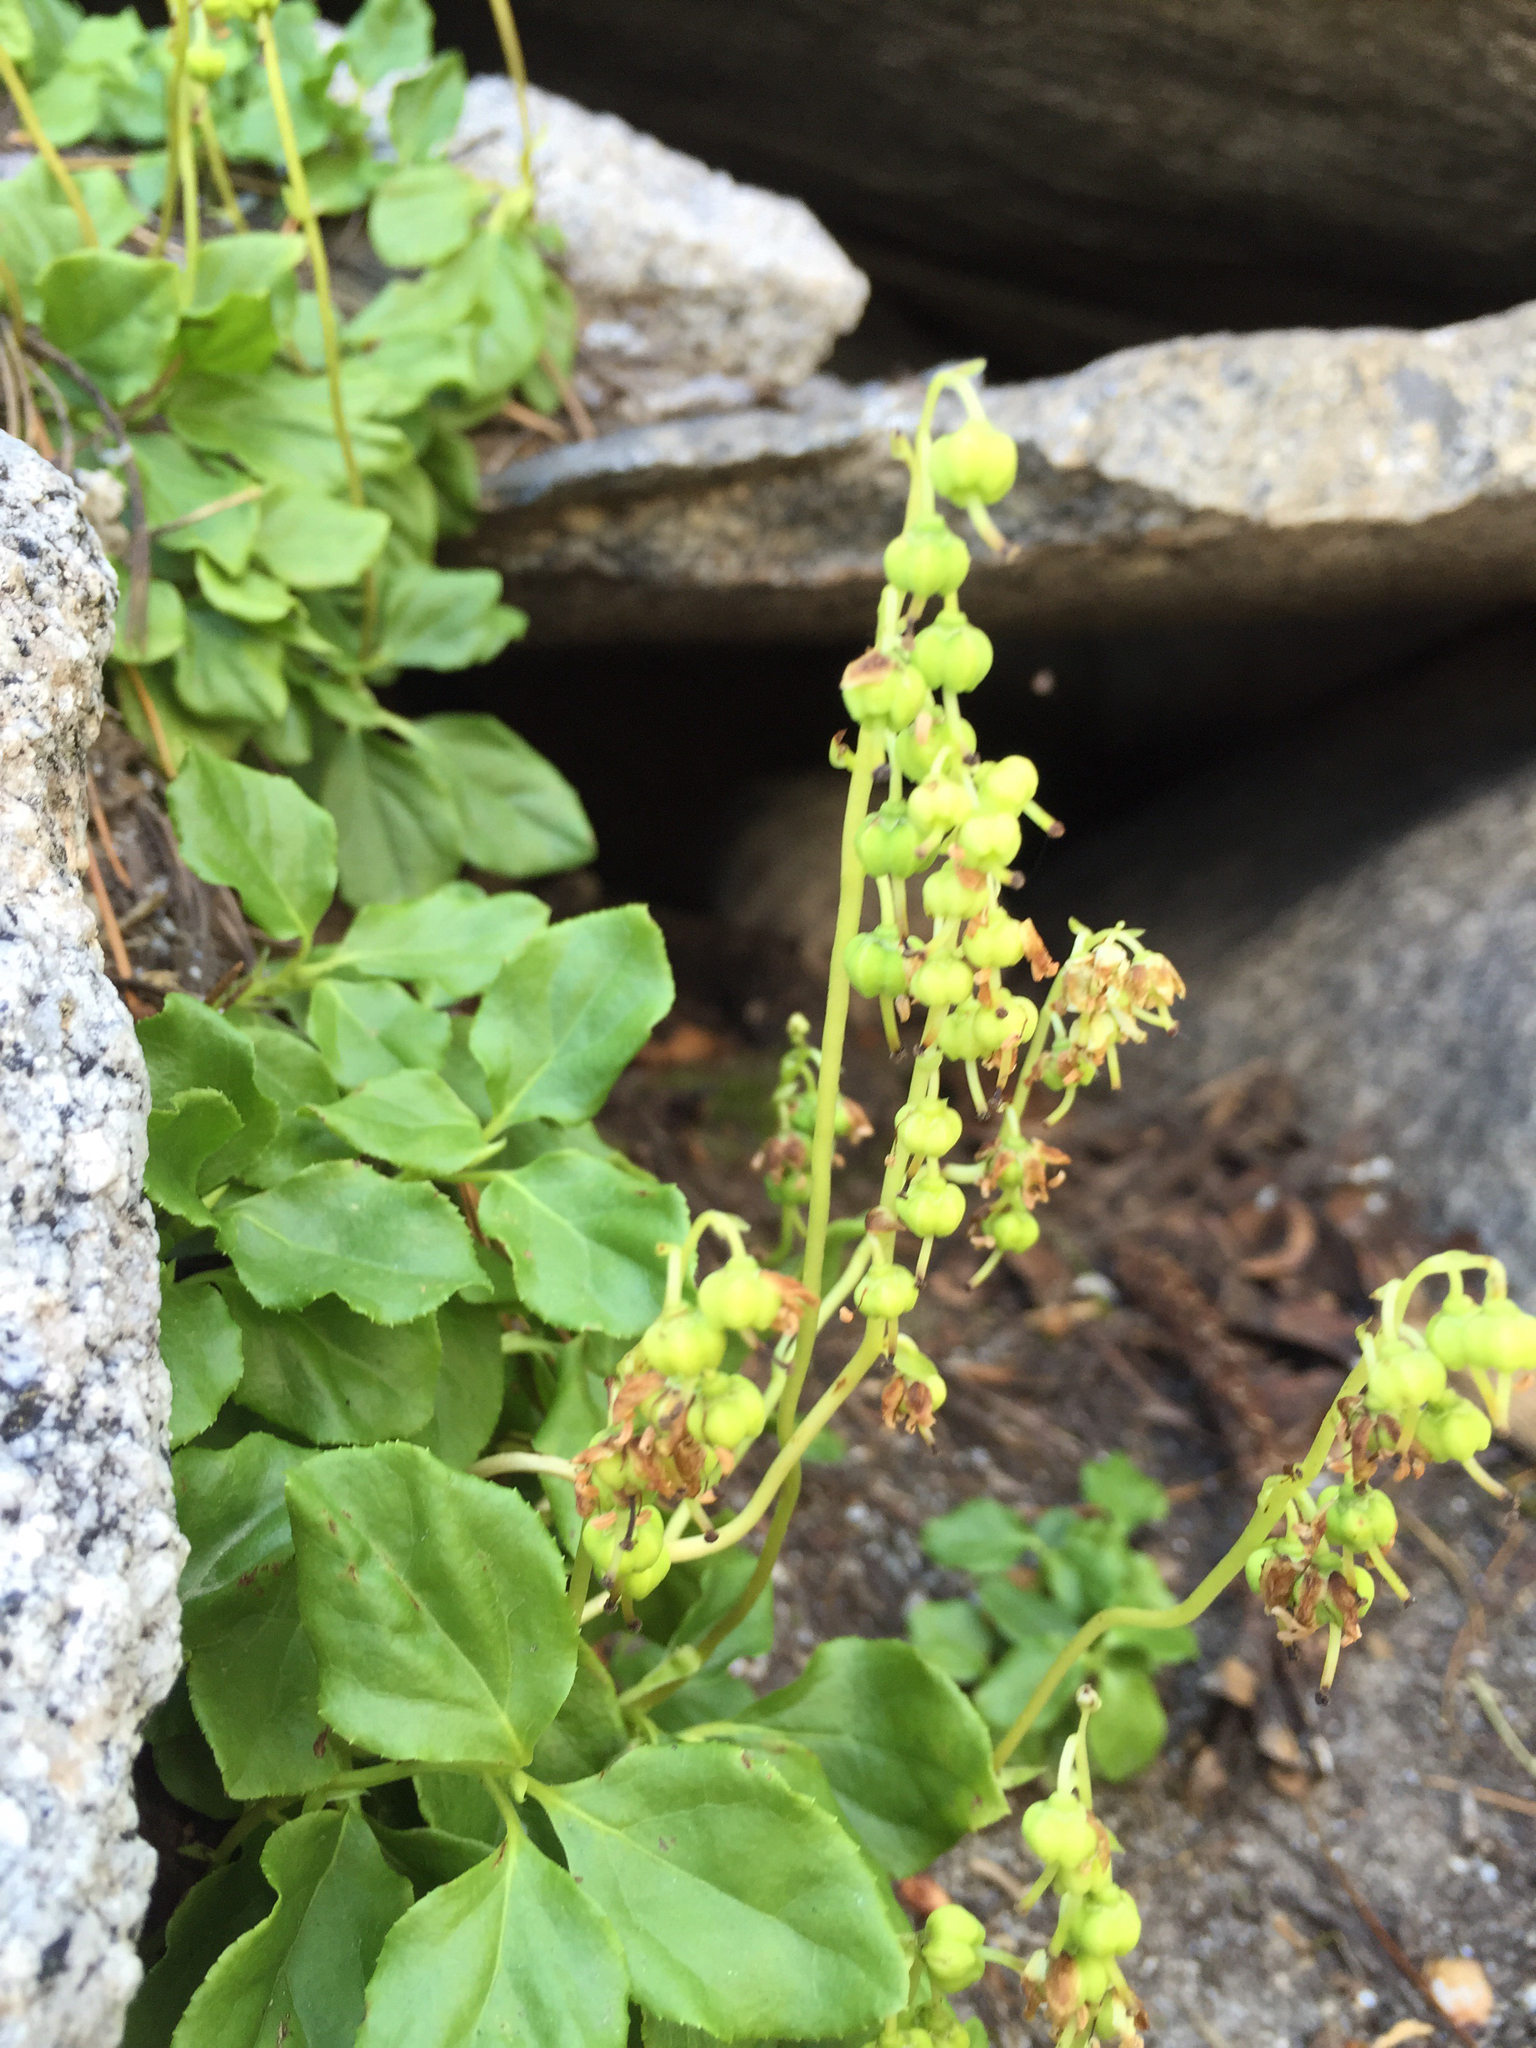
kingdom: Plantae
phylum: Tracheophyta
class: Magnoliopsida
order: Ericales
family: Ericaceae
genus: Orthilia
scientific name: Orthilia secunda
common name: One-sided orthilia
